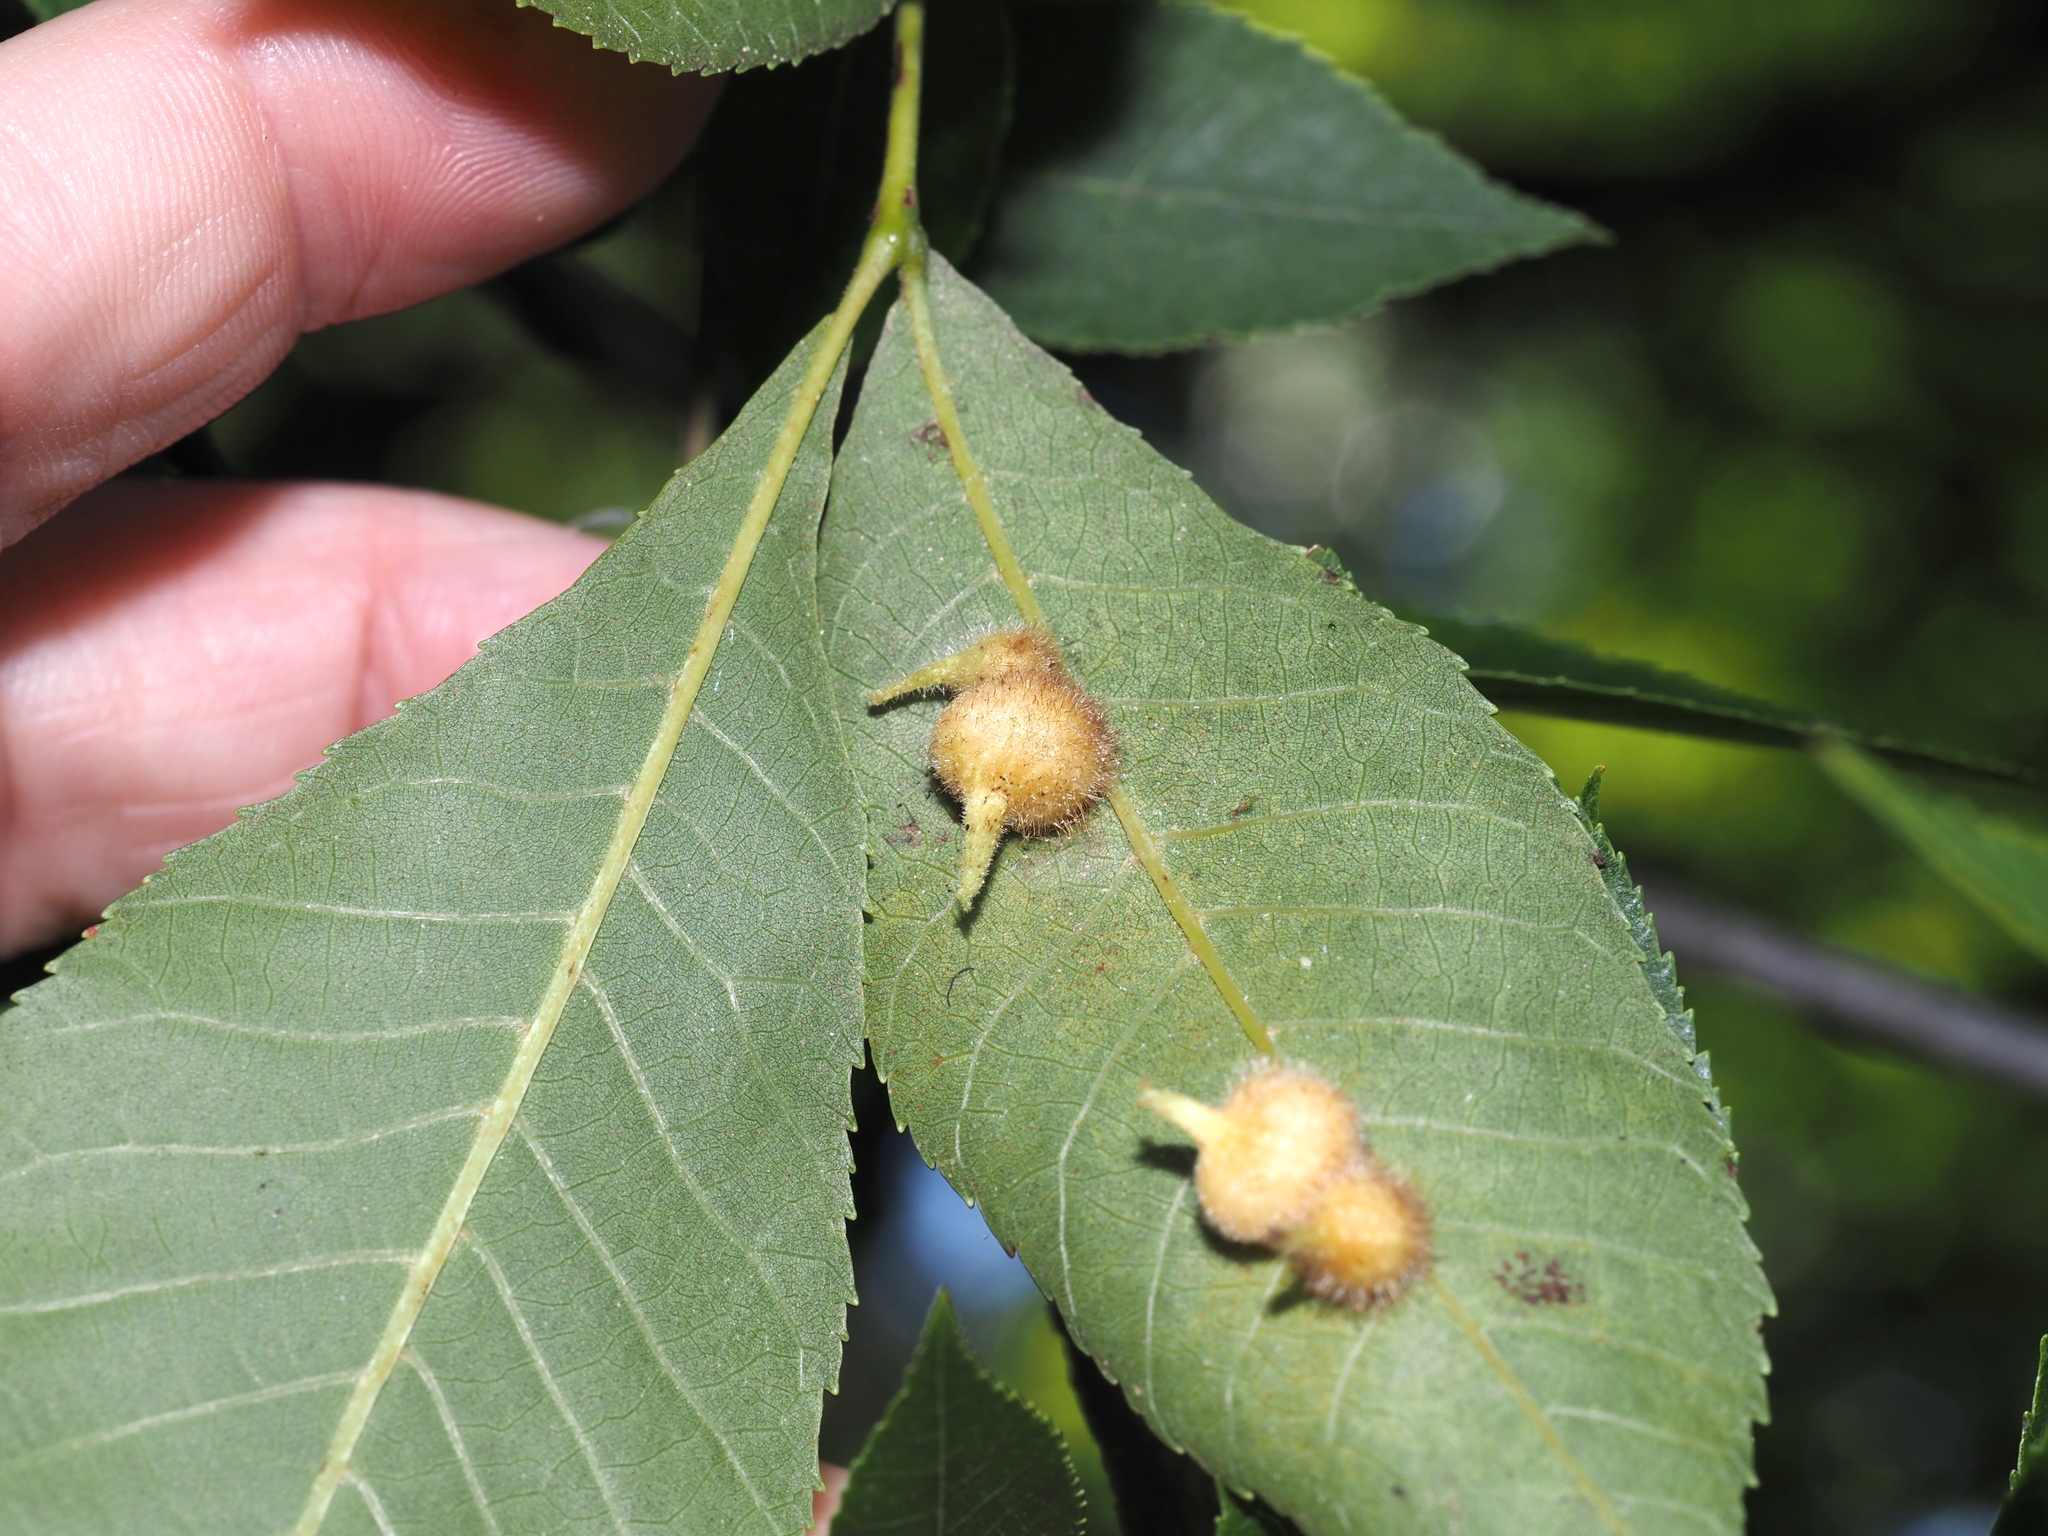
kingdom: Animalia
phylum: Arthropoda
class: Insecta
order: Diptera
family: Cecidomyiidae
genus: Caryomyia
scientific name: Caryomyia ansericollum
